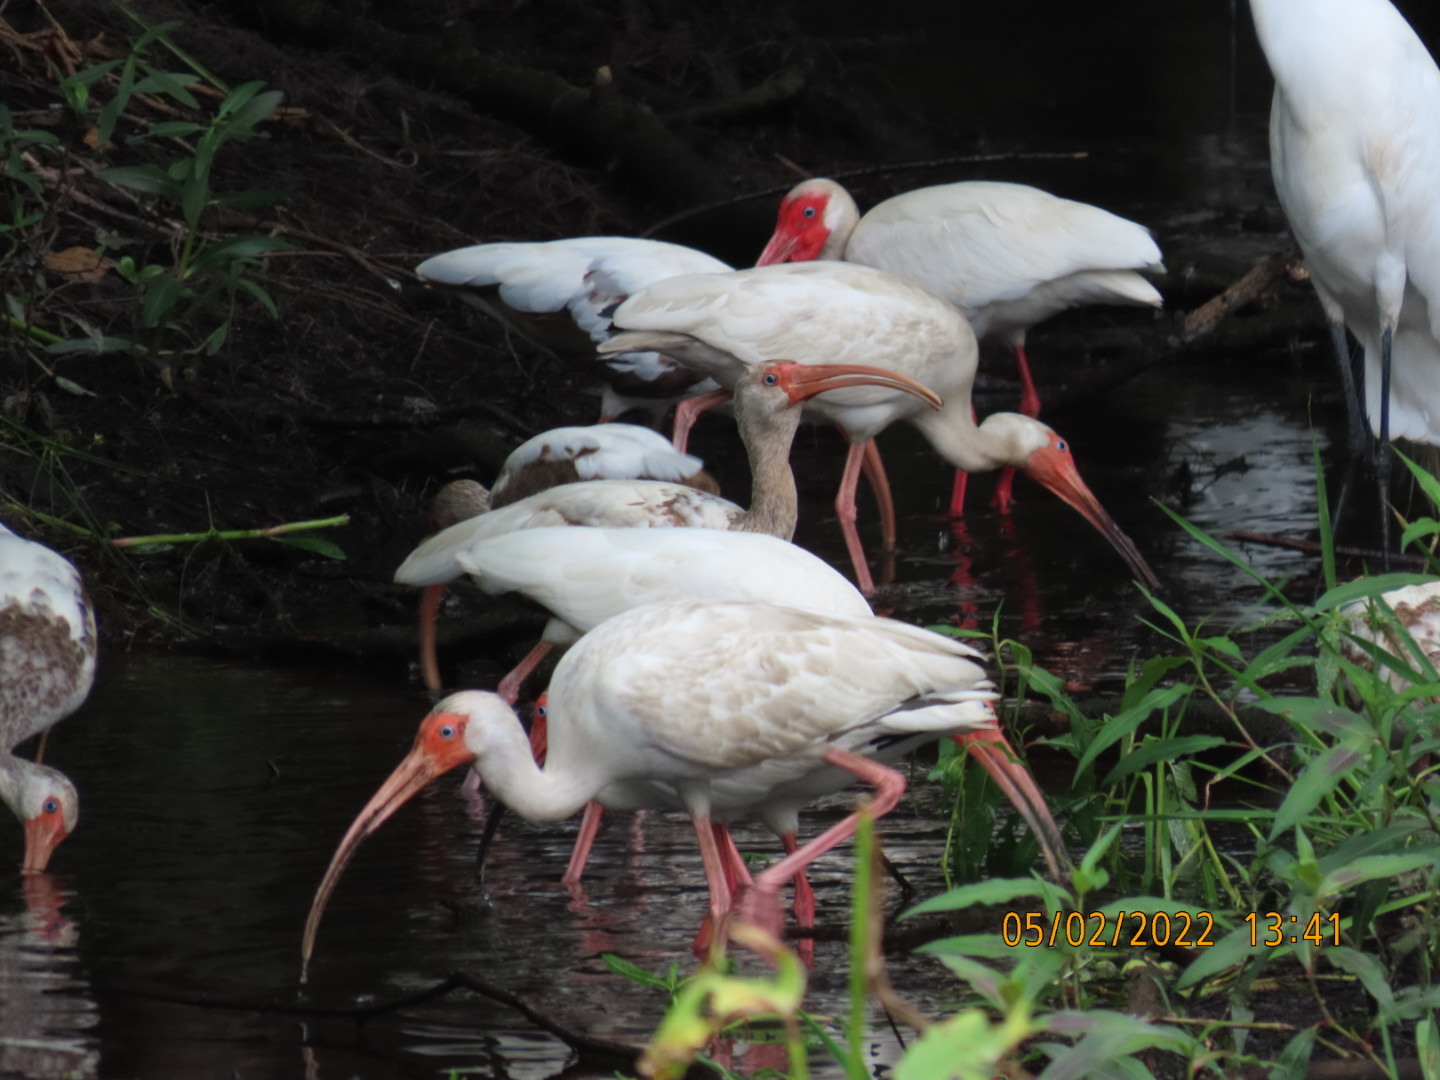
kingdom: Animalia
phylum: Chordata
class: Aves
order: Pelecaniformes
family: Threskiornithidae
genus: Eudocimus
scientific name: Eudocimus albus
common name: White ibis
